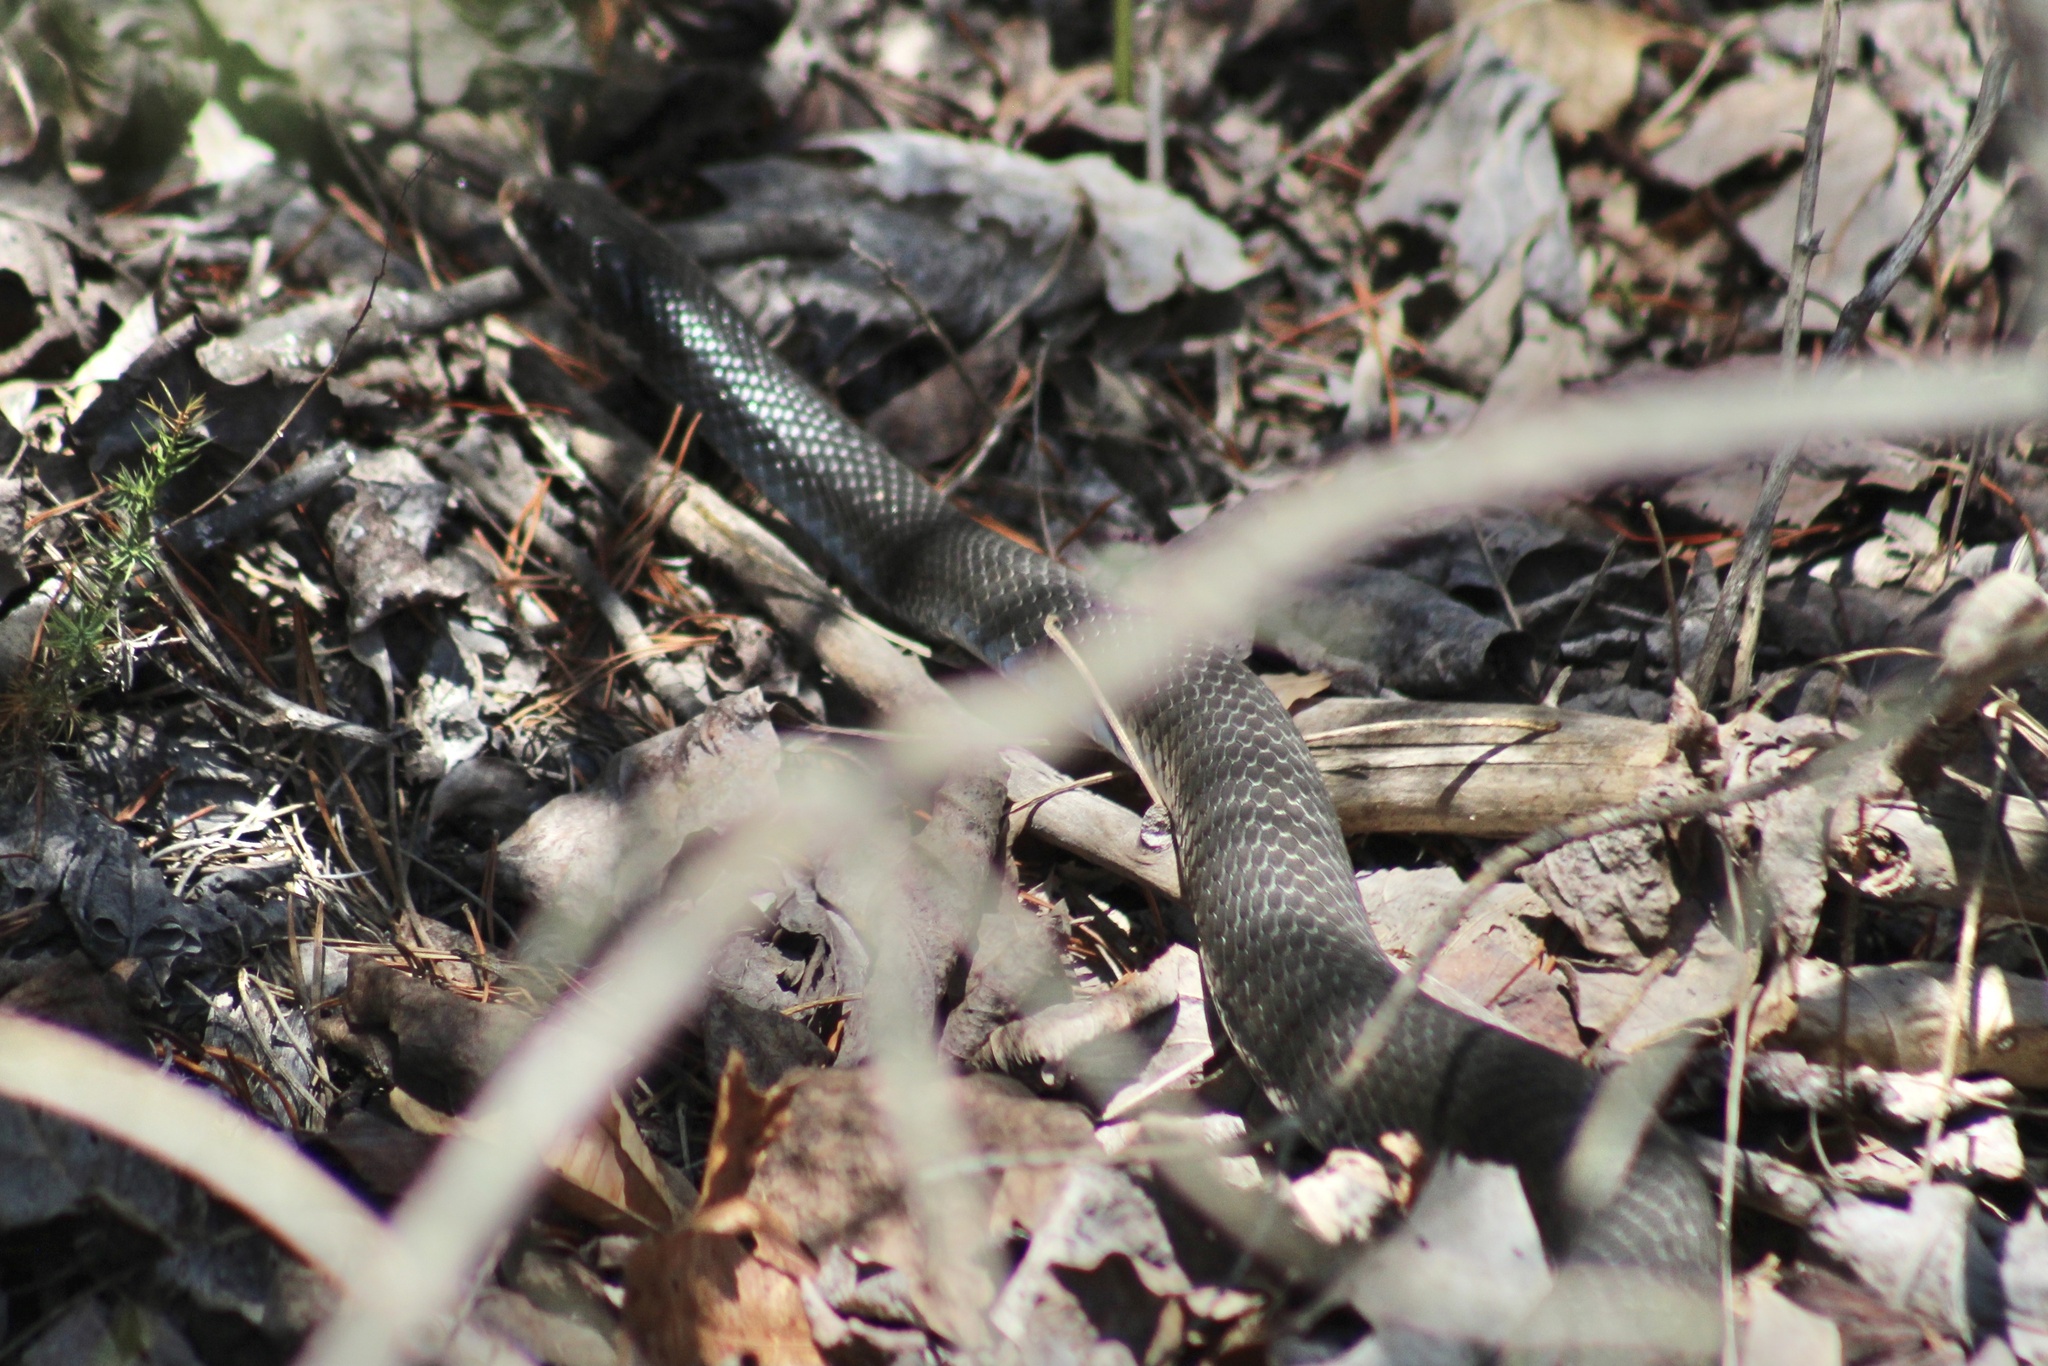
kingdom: Animalia
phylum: Chordata
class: Squamata
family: Colubridae
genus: Coluber
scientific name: Coluber constrictor
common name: Eastern racer
